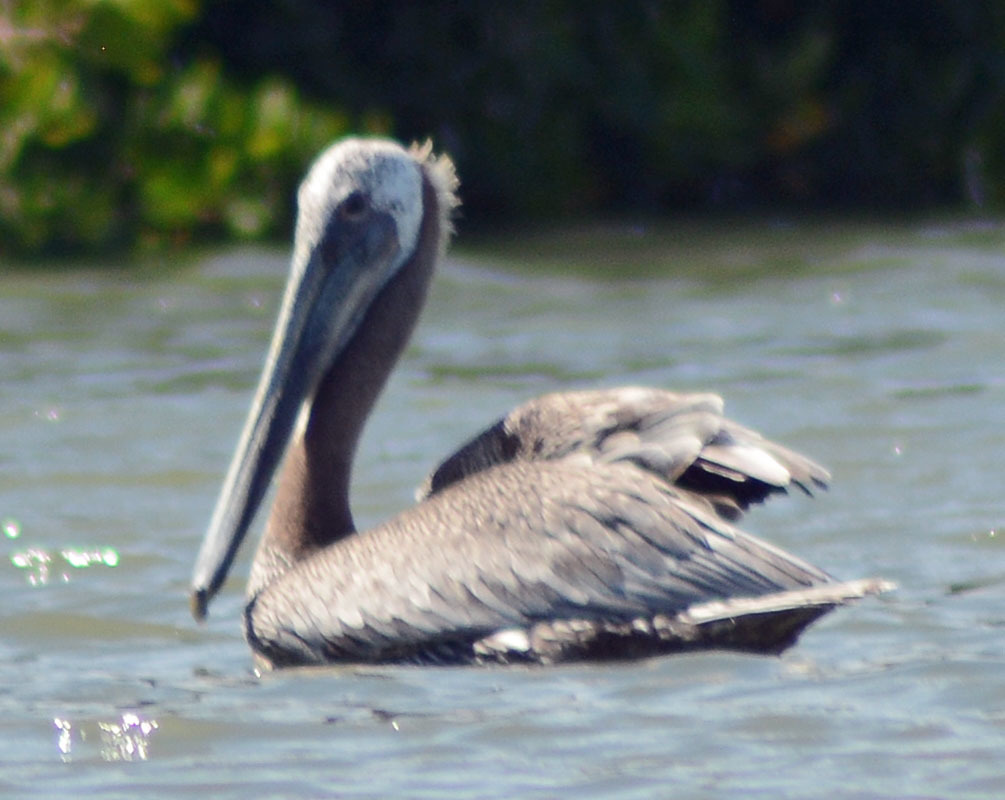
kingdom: Animalia
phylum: Chordata
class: Aves
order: Pelecaniformes
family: Pelecanidae
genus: Pelecanus
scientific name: Pelecanus occidentalis
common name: Brown pelican
